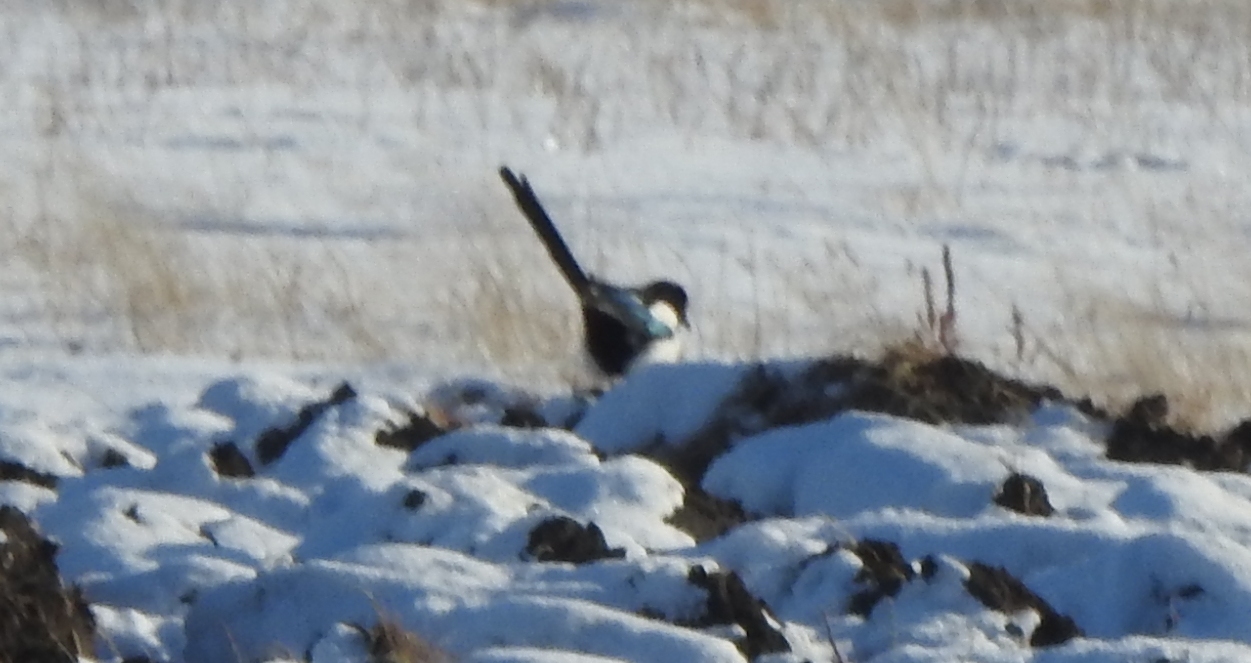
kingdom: Animalia
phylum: Chordata
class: Aves
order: Passeriformes
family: Corvidae
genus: Pica
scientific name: Pica pica
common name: Eurasian magpie
